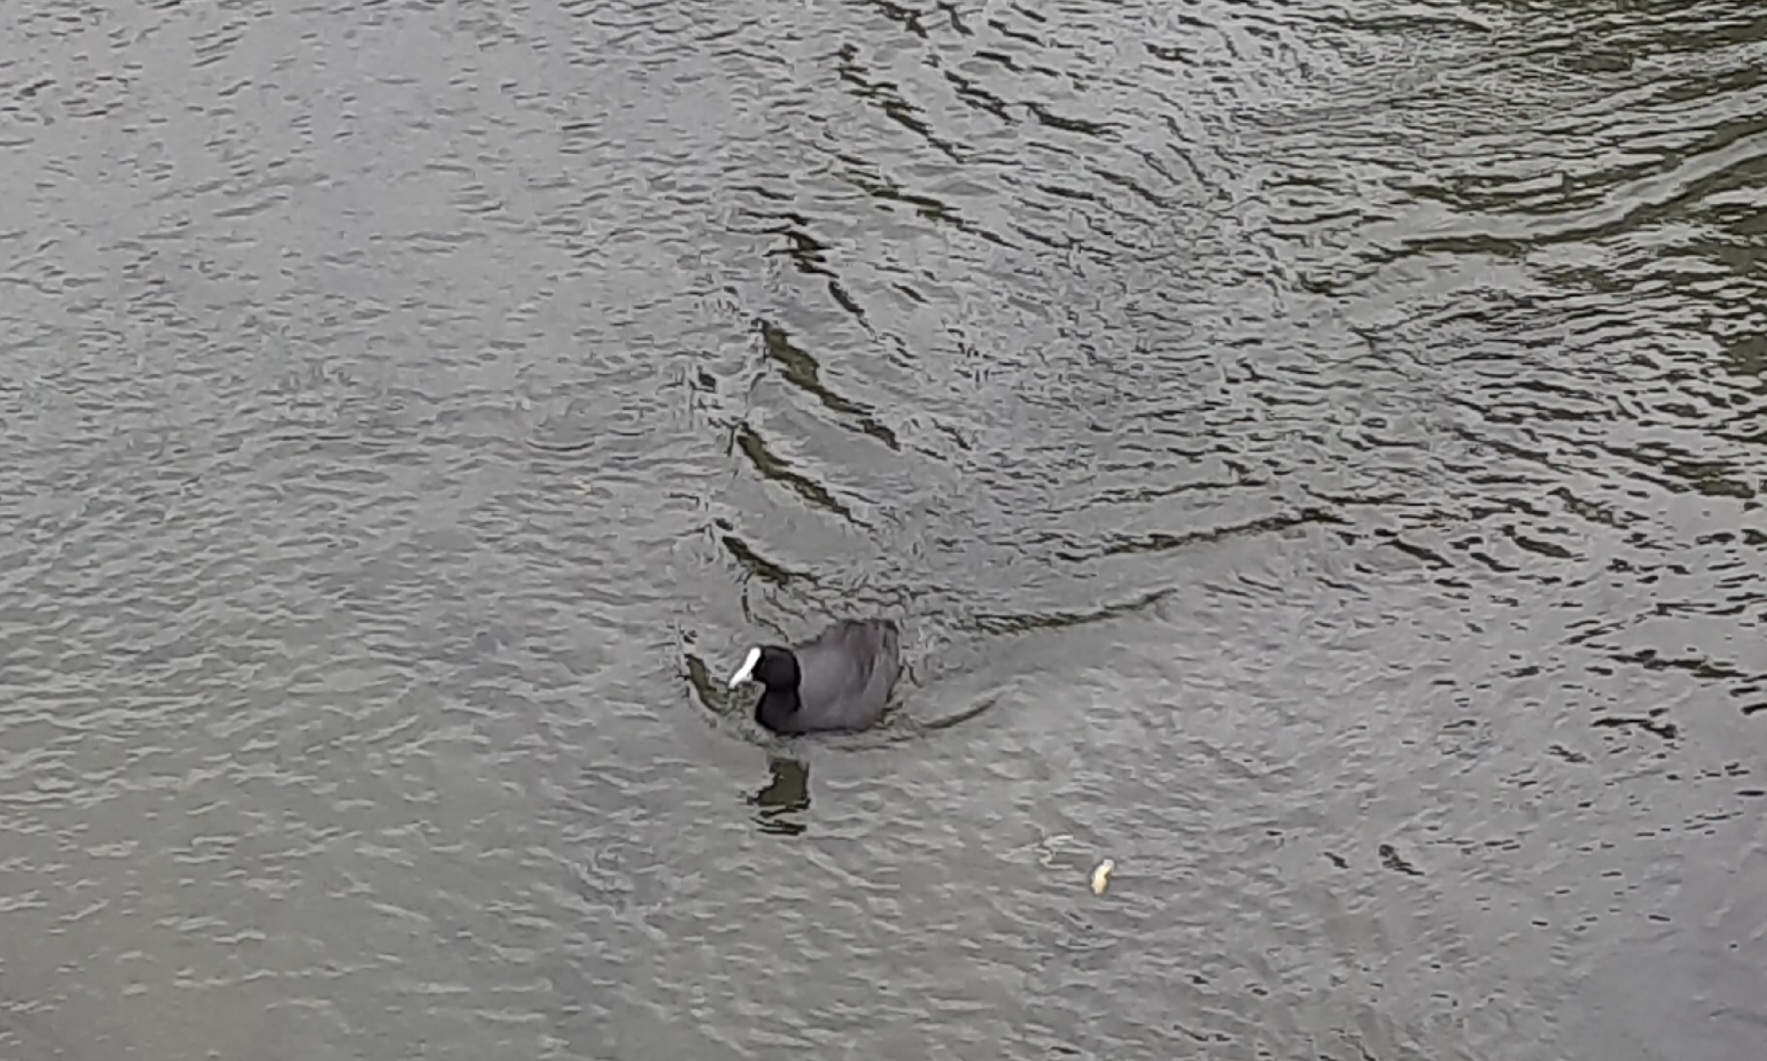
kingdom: Animalia
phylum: Chordata
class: Aves
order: Gruiformes
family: Rallidae
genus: Fulica
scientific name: Fulica atra
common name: Eurasian coot
